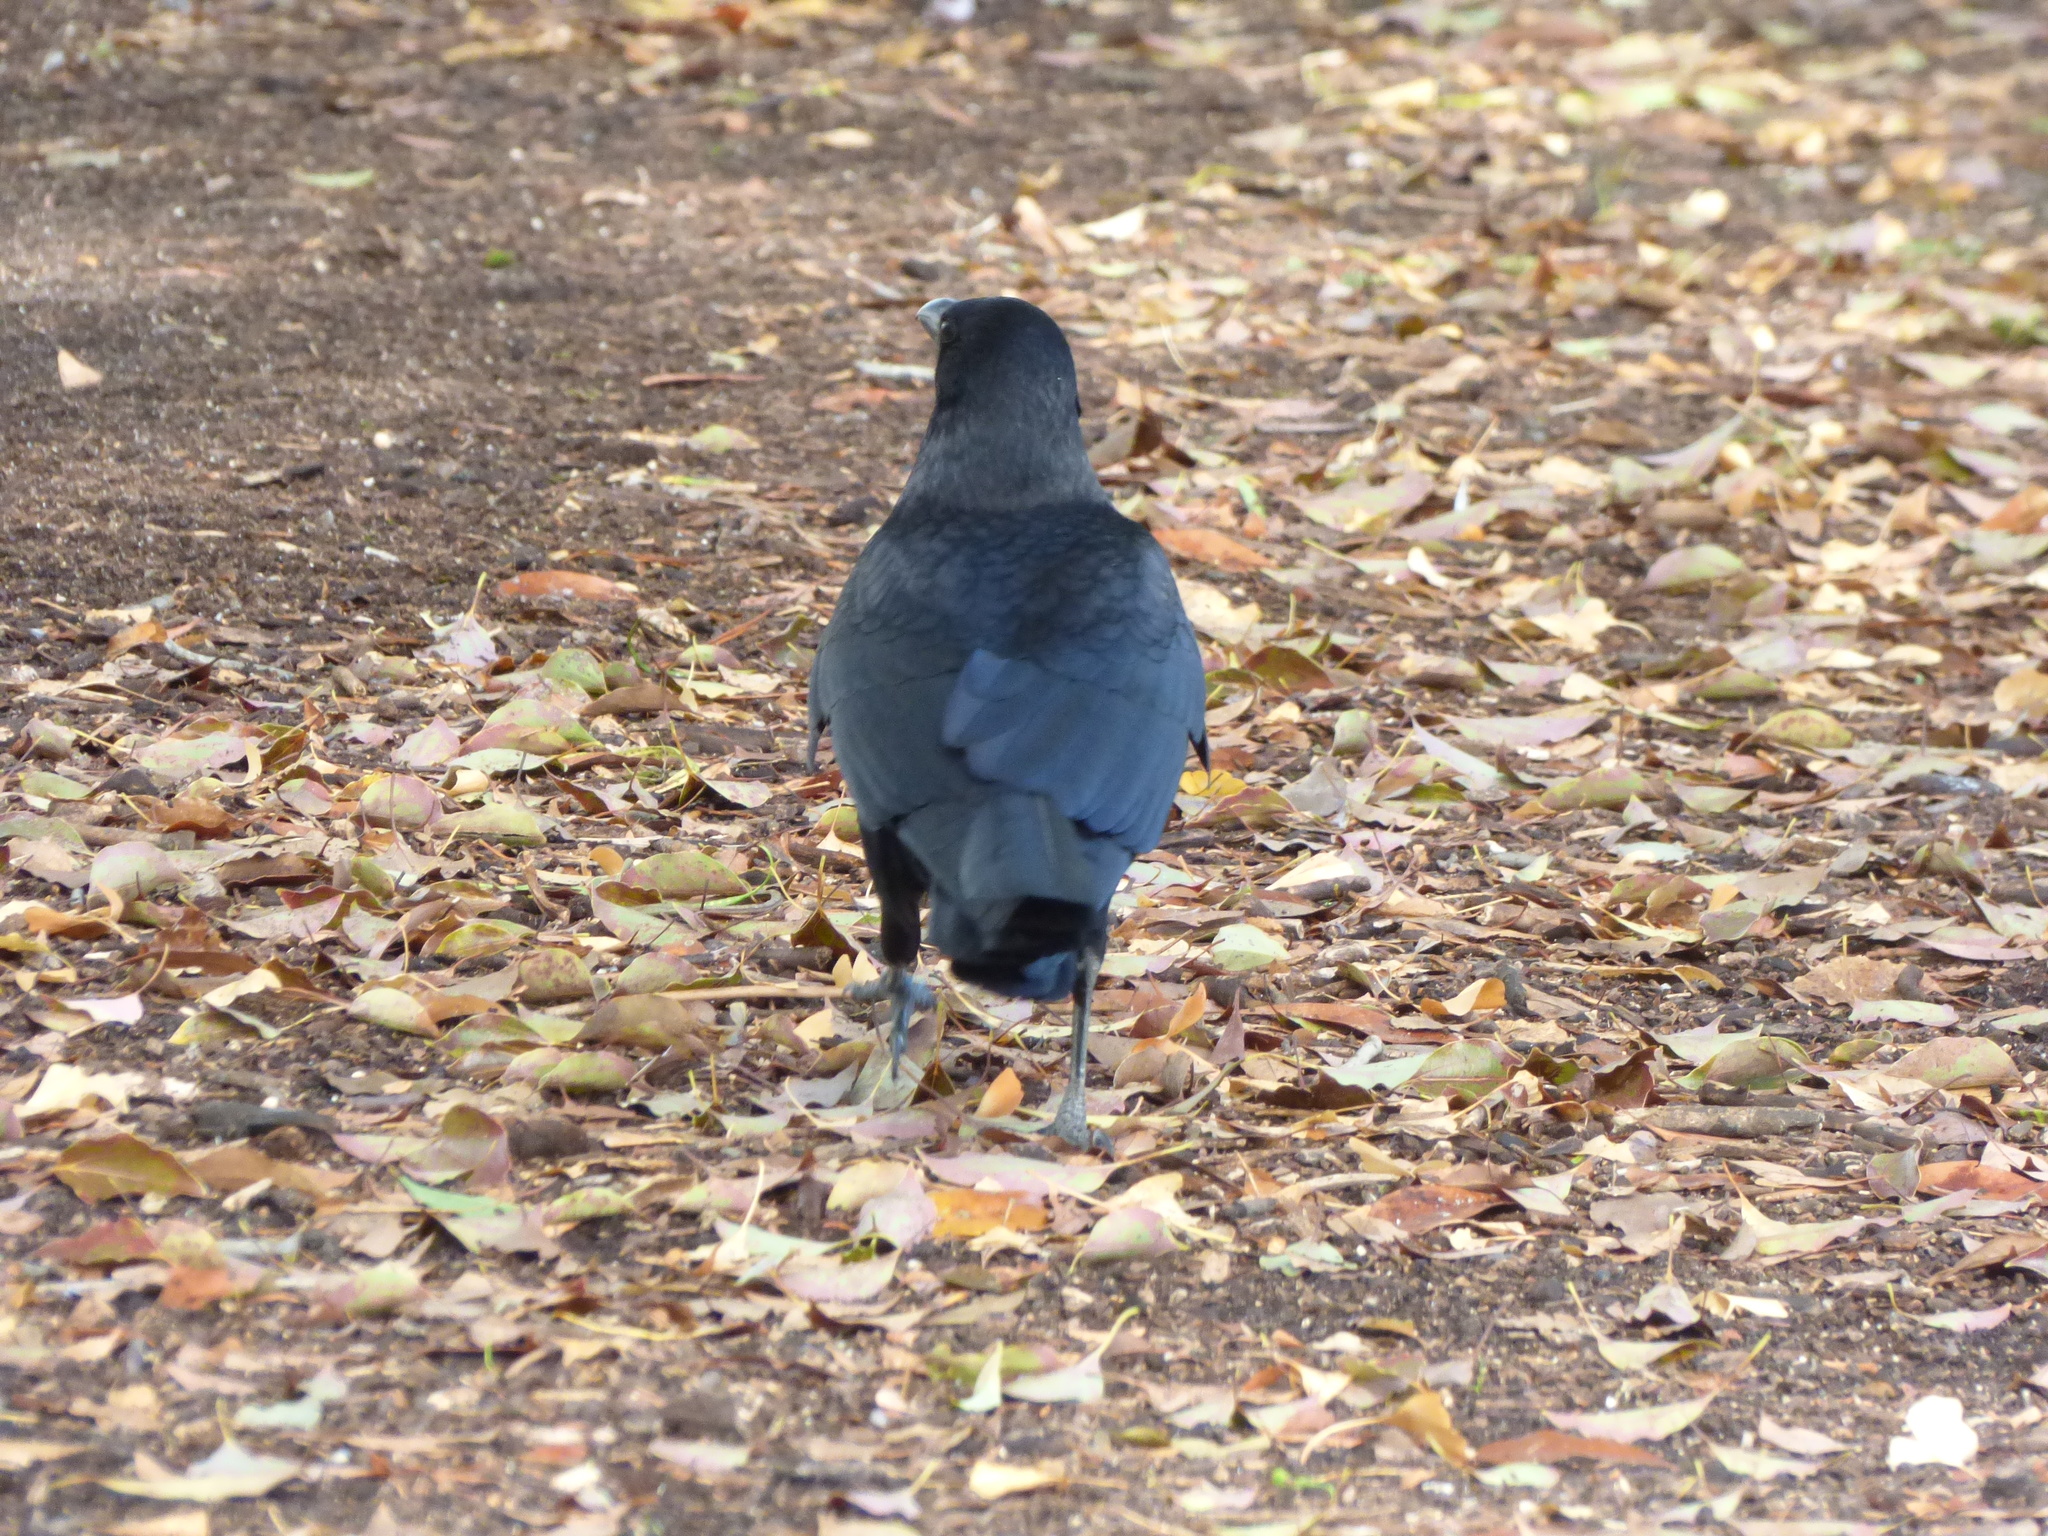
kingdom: Animalia
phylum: Chordata
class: Aves
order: Passeriformes
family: Corvidae
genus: Corvus
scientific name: Corvus corone
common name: Carrion crow
